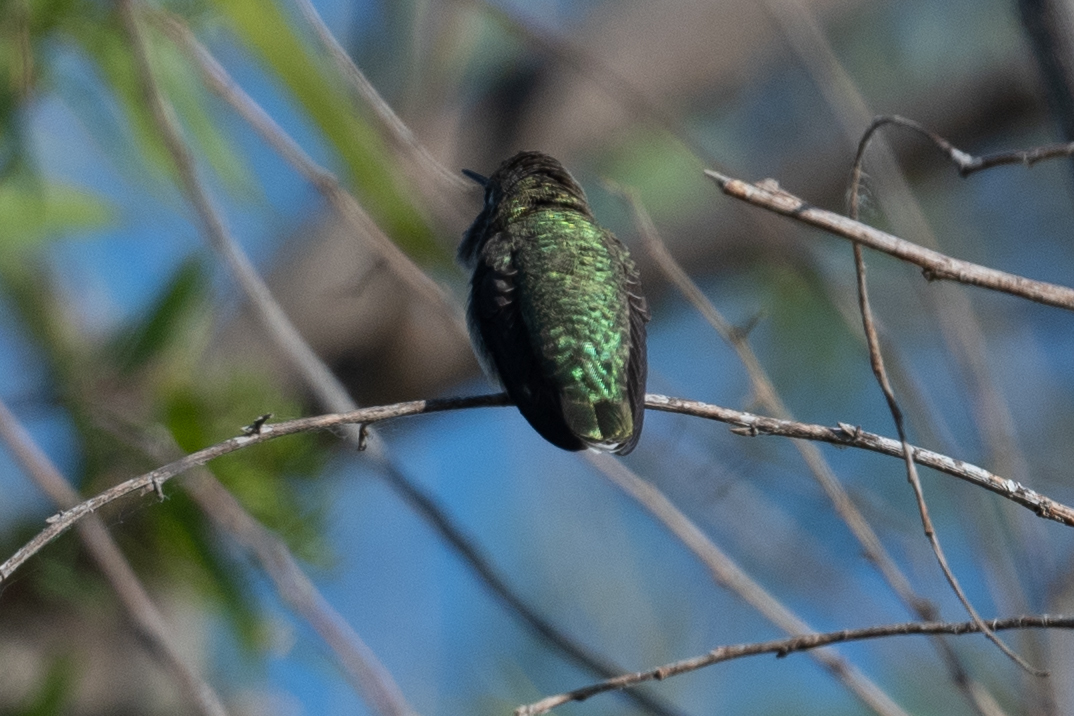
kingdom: Animalia
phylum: Chordata
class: Aves
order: Apodiformes
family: Trochilidae
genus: Calypte
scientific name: Calypte anna
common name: Anna's hummingbird
